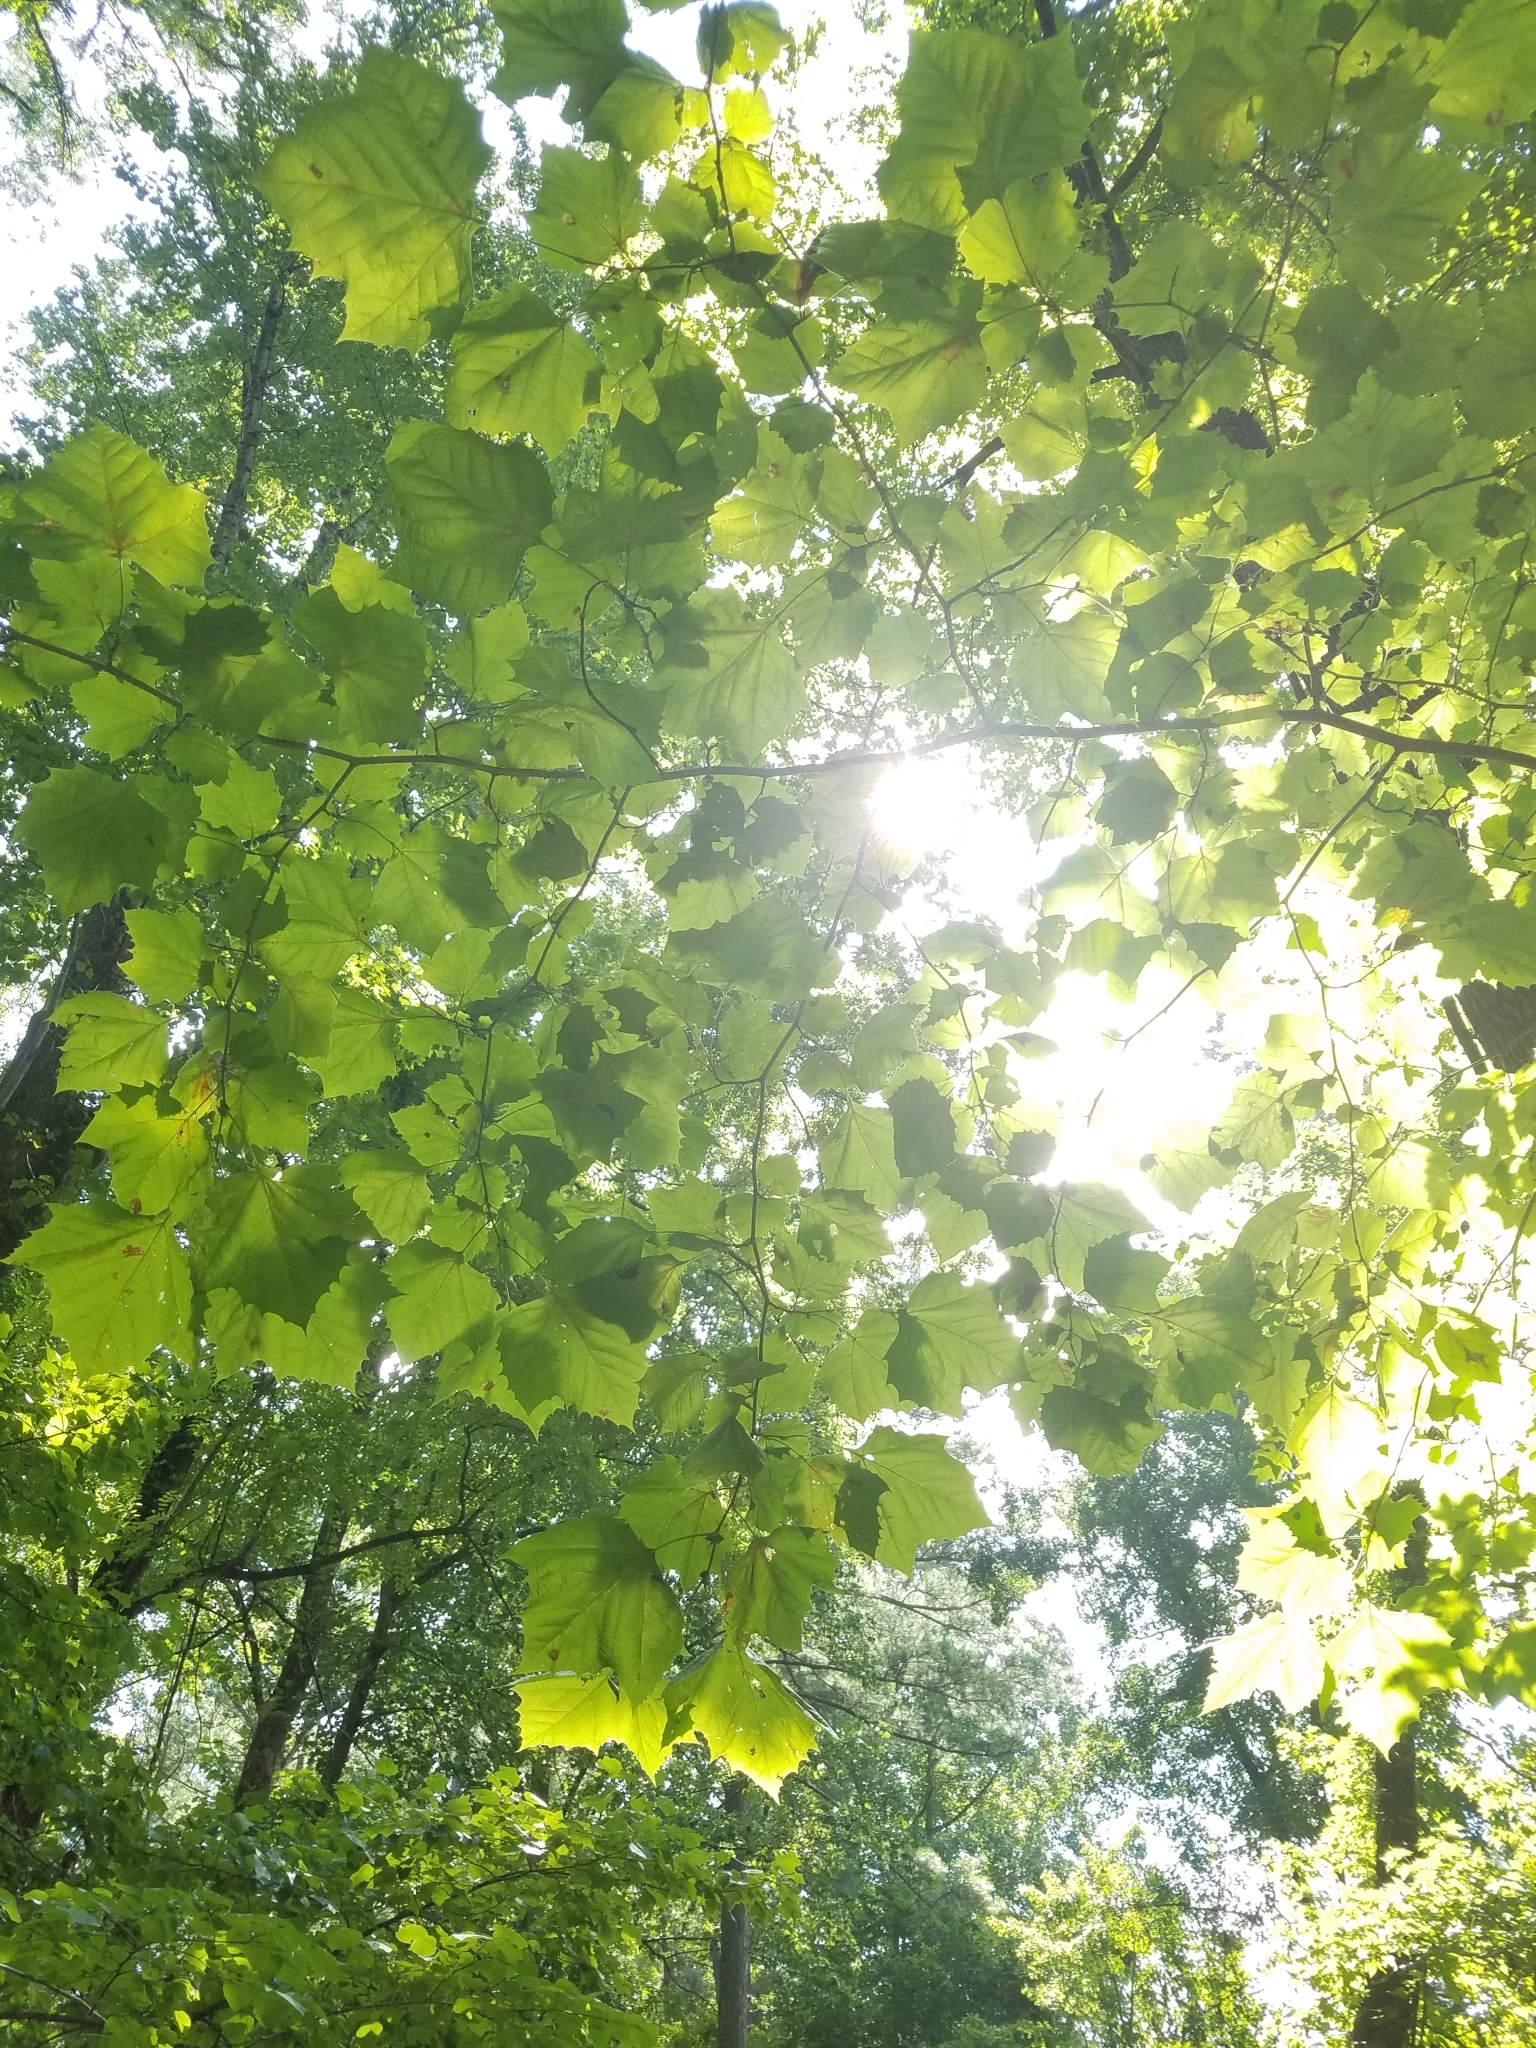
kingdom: Plantae
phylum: Tracheophyta
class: Magnoliopsida
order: Proteales
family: Platanaceae
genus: Platanus
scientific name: Platanus occidentalis
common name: American sycamore
